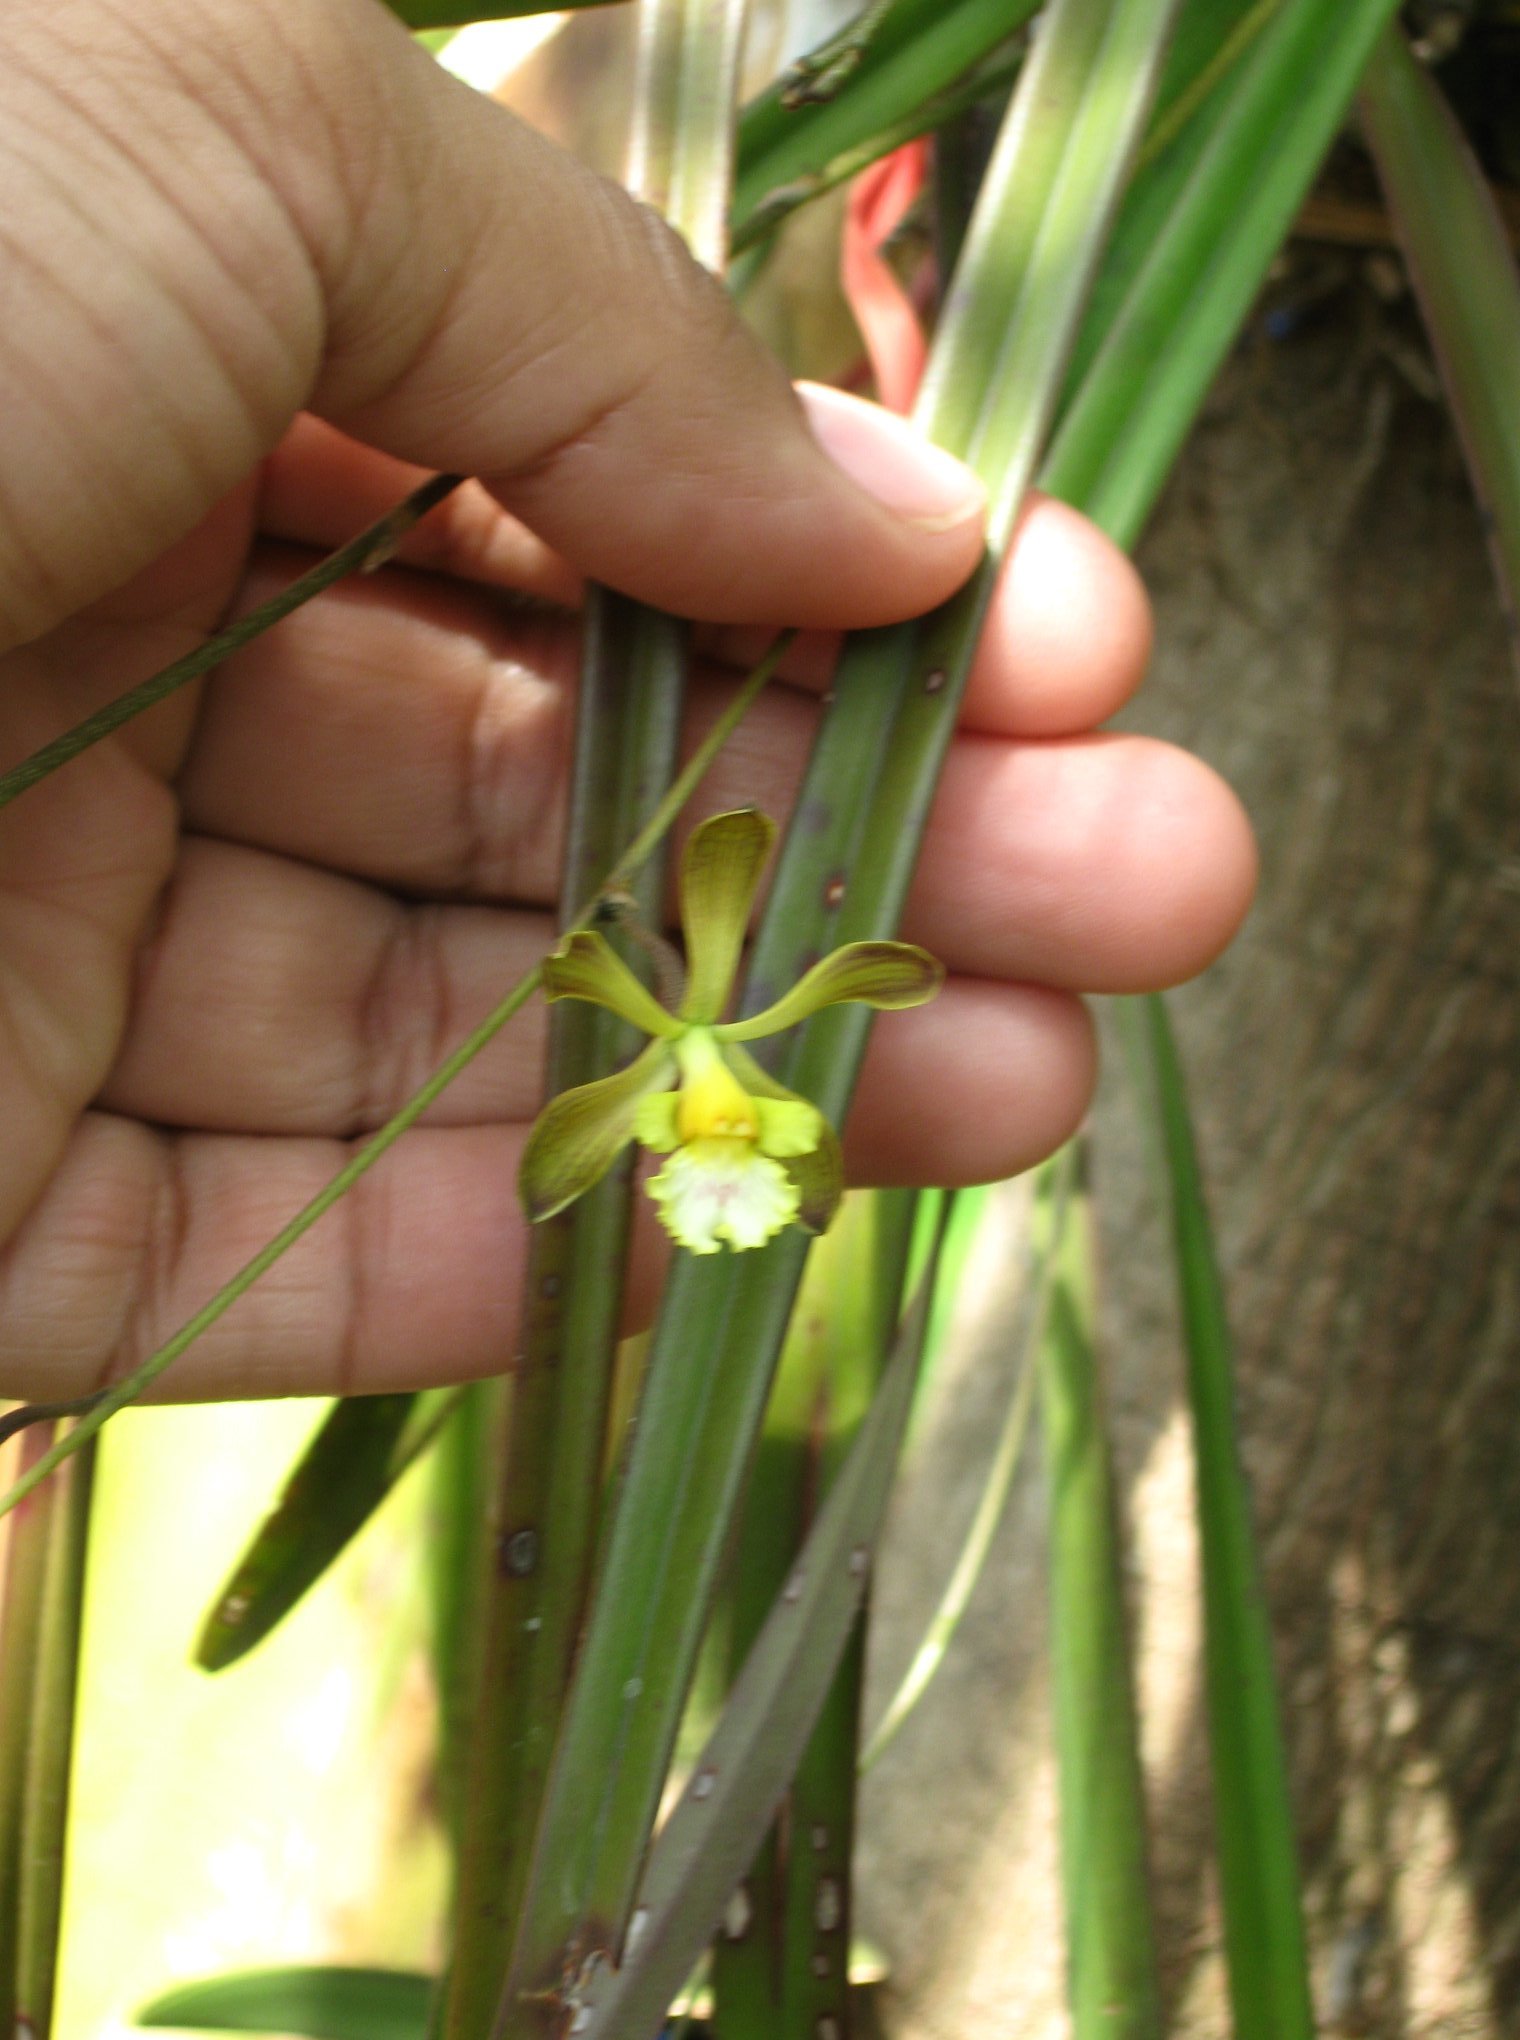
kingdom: Plantae
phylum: Tracheophyta
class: Liliopsida
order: Asparagales
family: Orchidaceae
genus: Encyclia
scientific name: Encyclia papillosa
